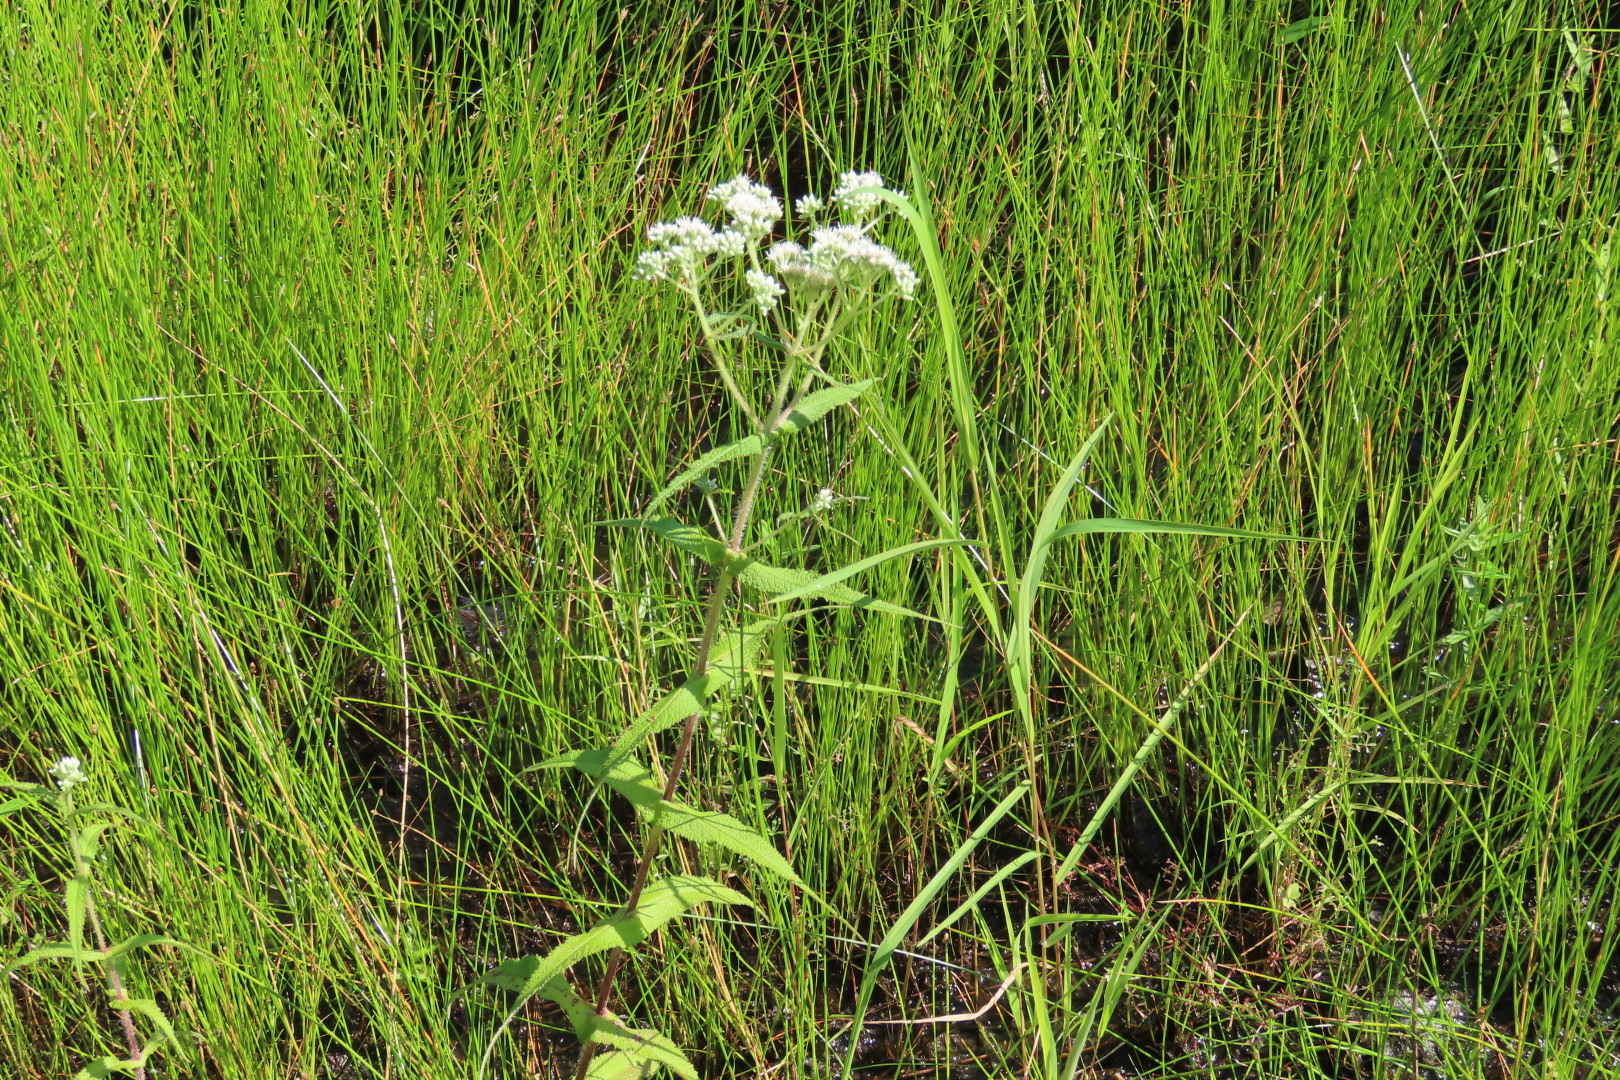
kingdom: Plantae
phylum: Tracheophyta
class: Magnoliopsida
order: Asterales
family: Asteraceae
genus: Eupatorium
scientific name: Eupatorium perfoliatum
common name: Boneset
